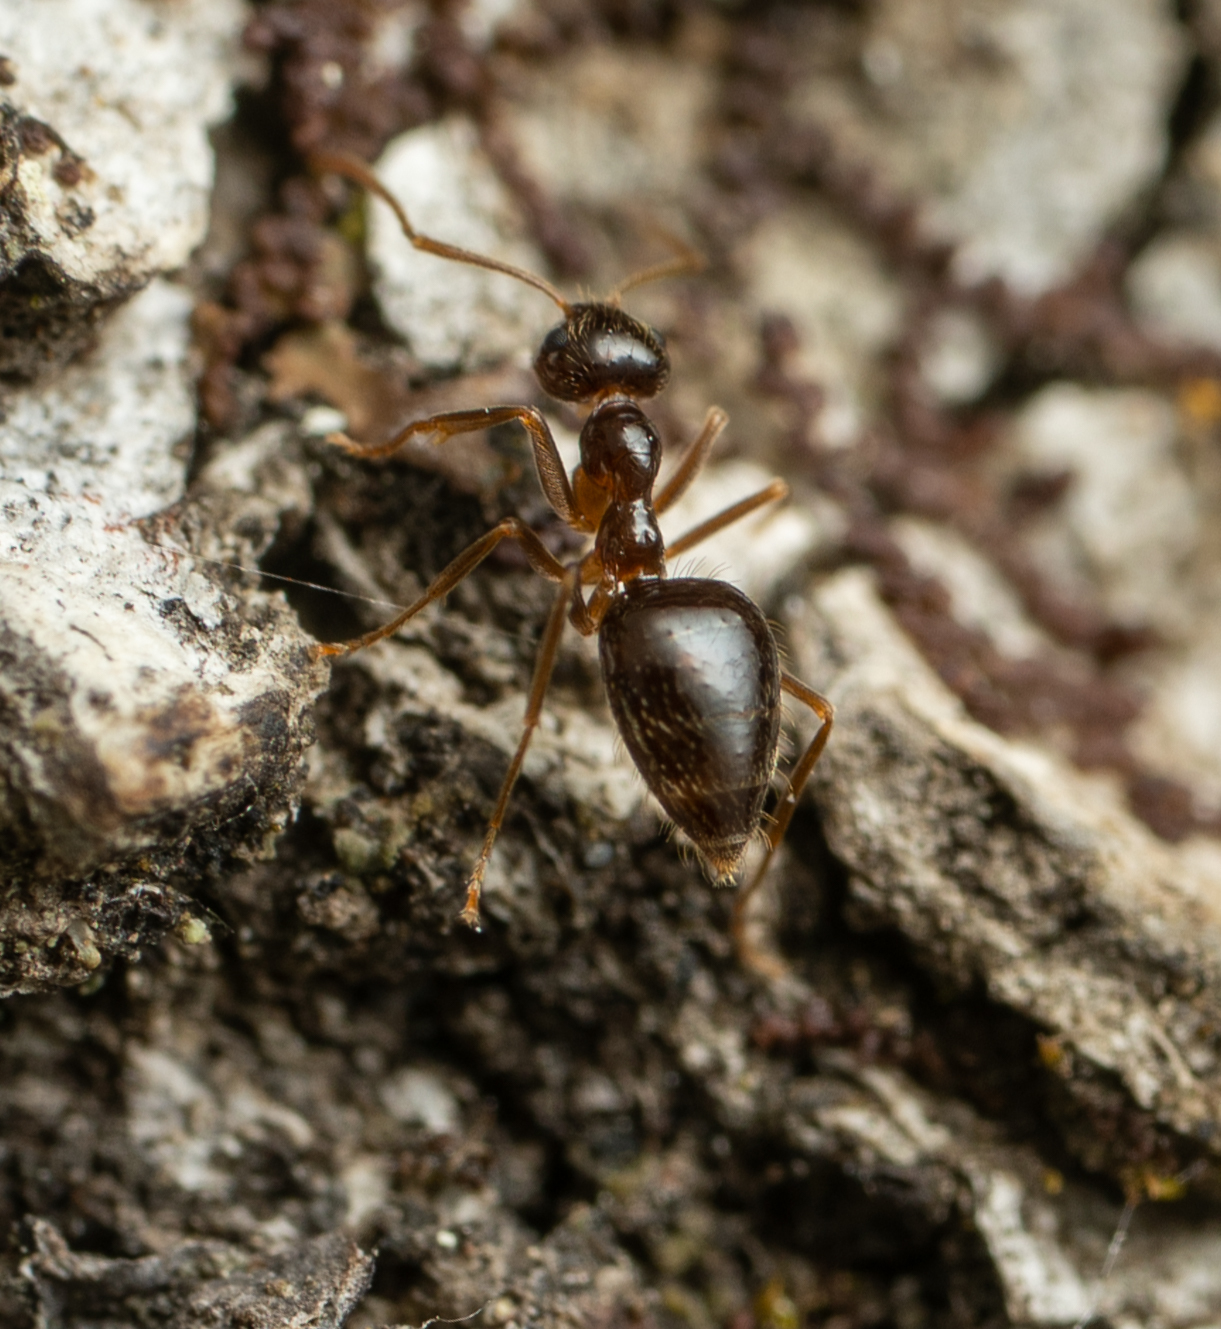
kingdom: Animalia
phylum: Arthropoda
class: Insecta
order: Hymenoptera
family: Formicidae
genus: Prenolepis
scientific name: Prenolepis imparis
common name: Small honey ant
